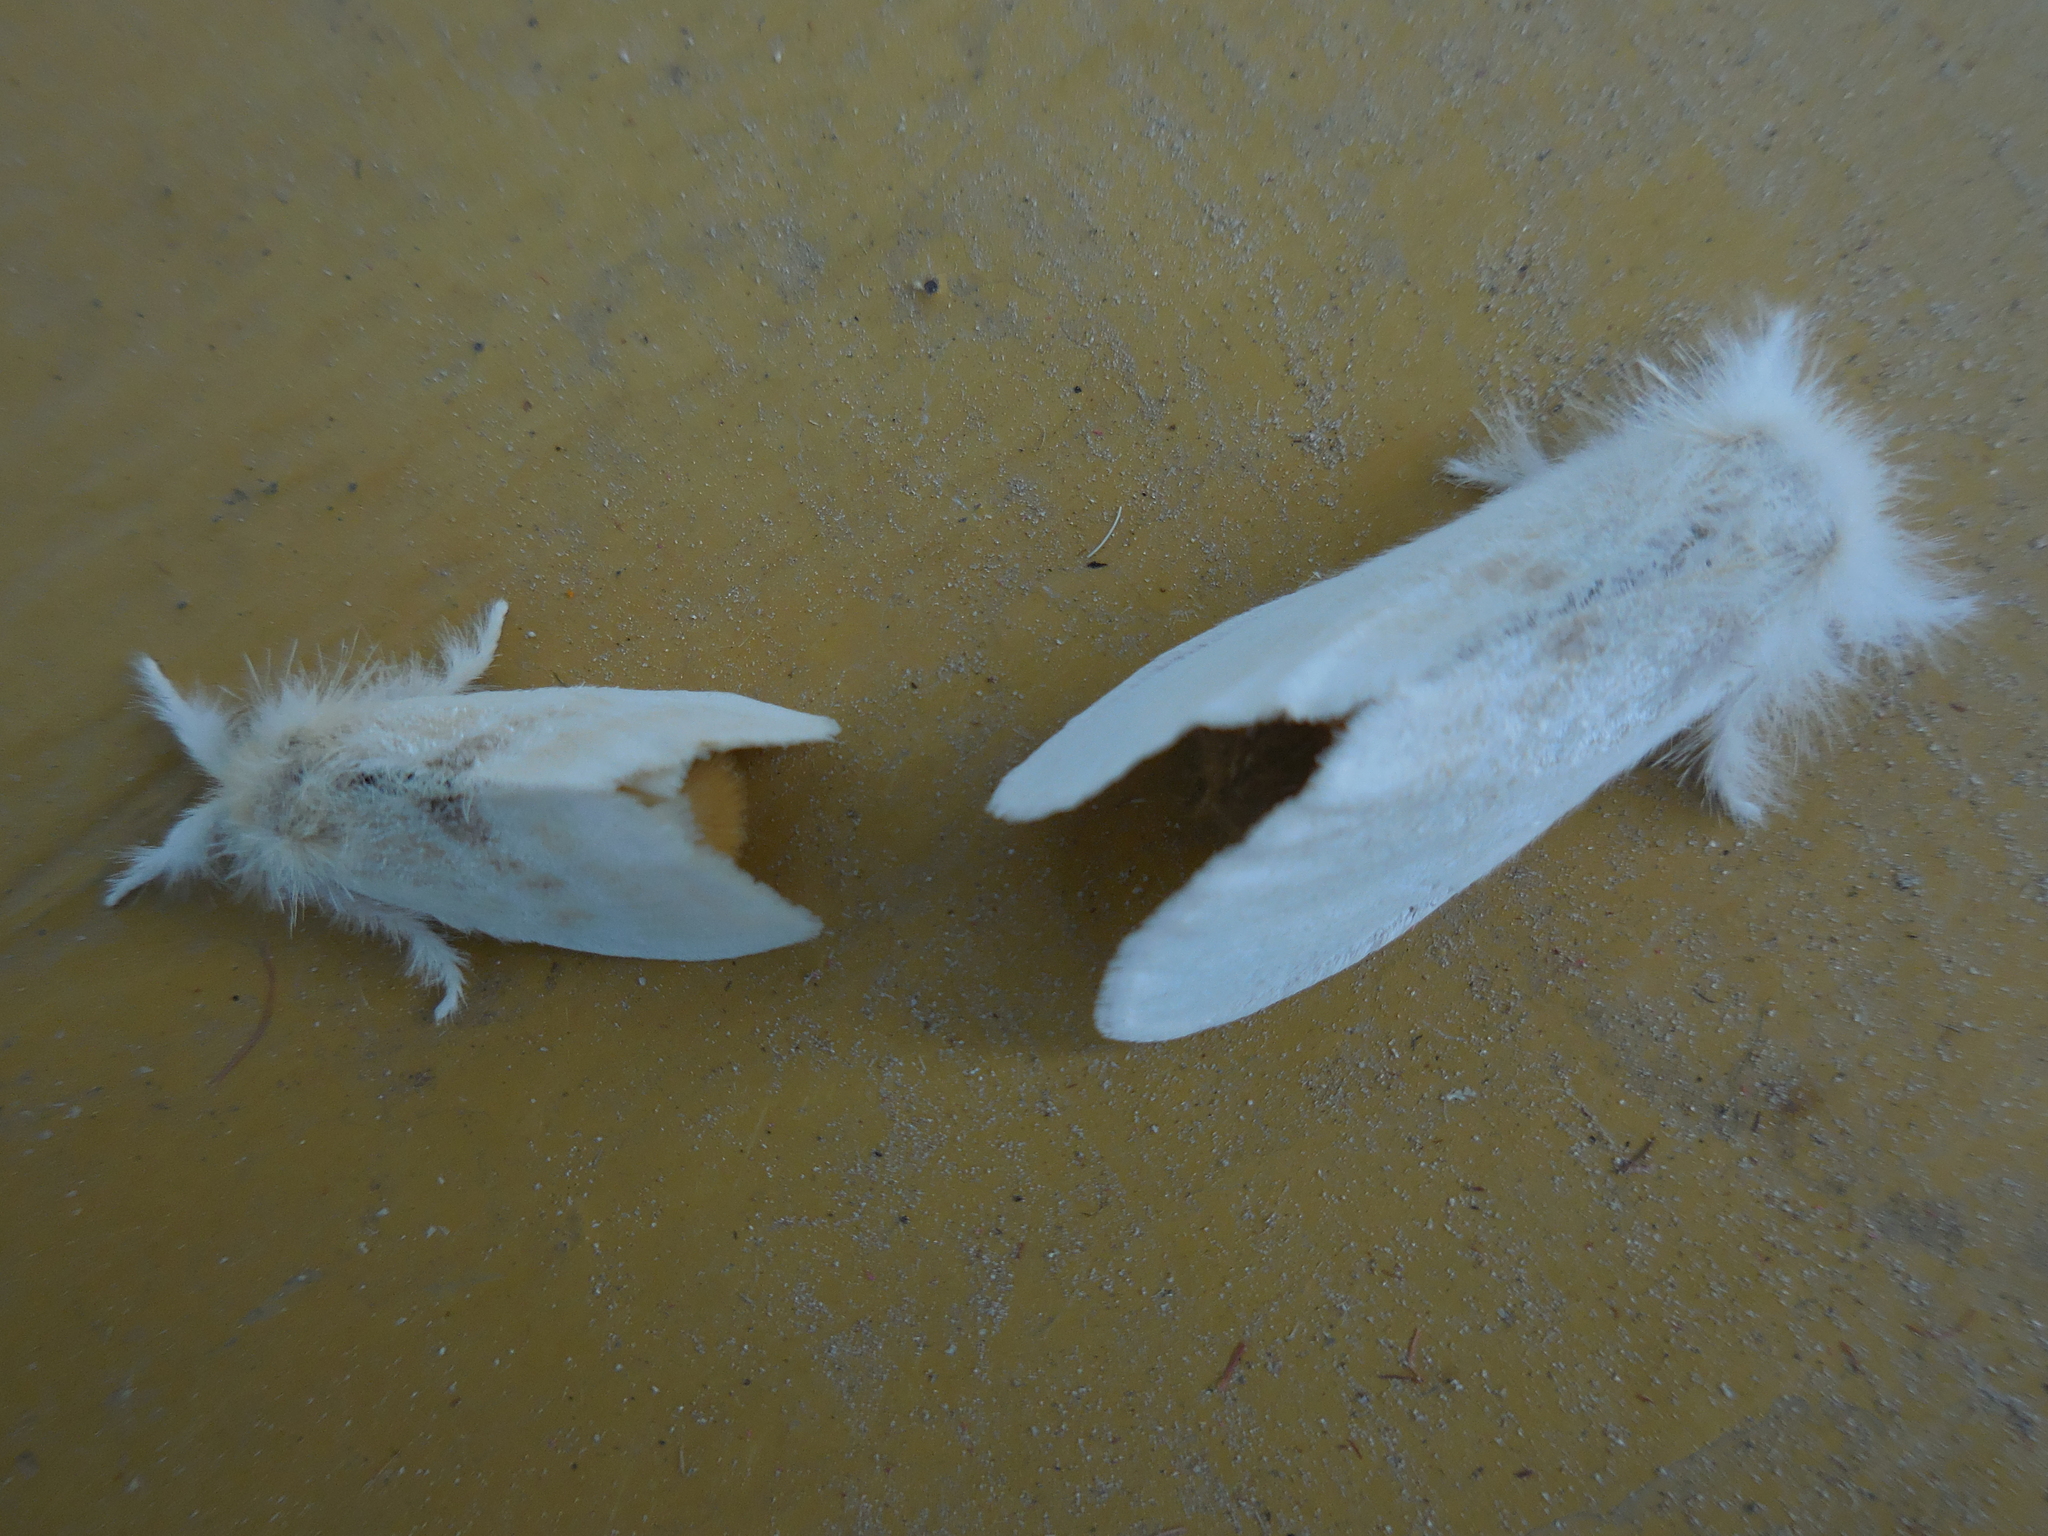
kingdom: Animalia
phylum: Arthropoda
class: Insecta
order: Lepidoptera
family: Erebidae
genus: Sphrageidus
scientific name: Sphrageidus similis
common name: Yellow-tail
